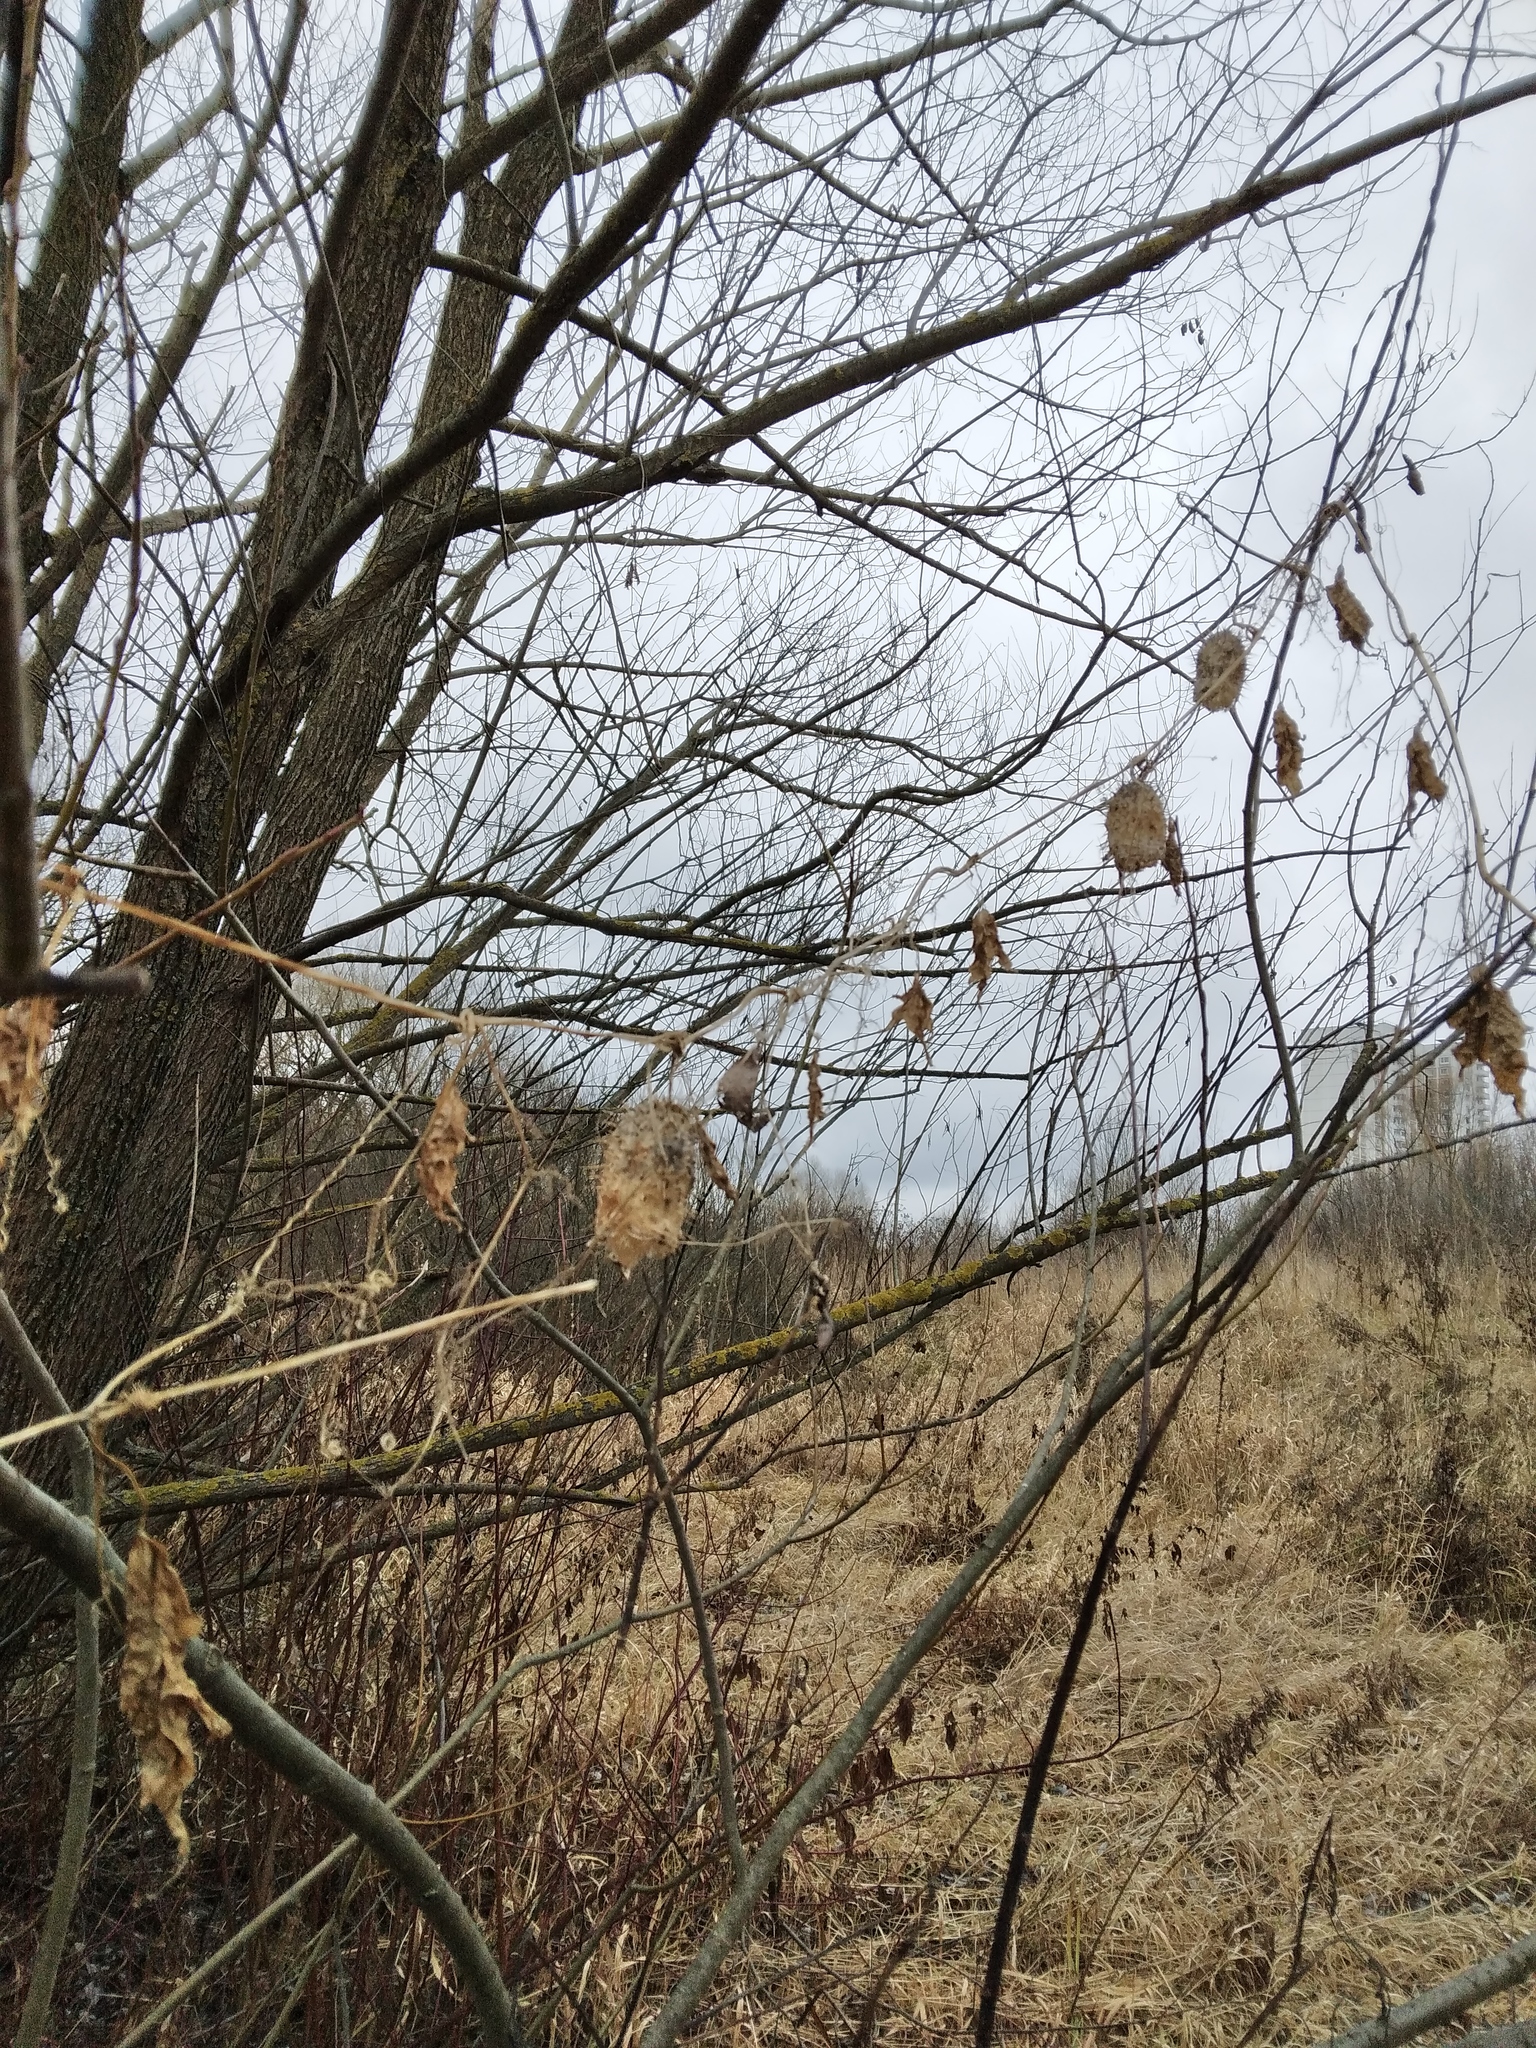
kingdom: Plantae
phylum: Tracheophyta
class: Magnoliopsida
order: Cucurbitales
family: Cucurbitaceae
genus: Echinocystis
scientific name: Echinocystis lobata
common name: Wild cucumber
